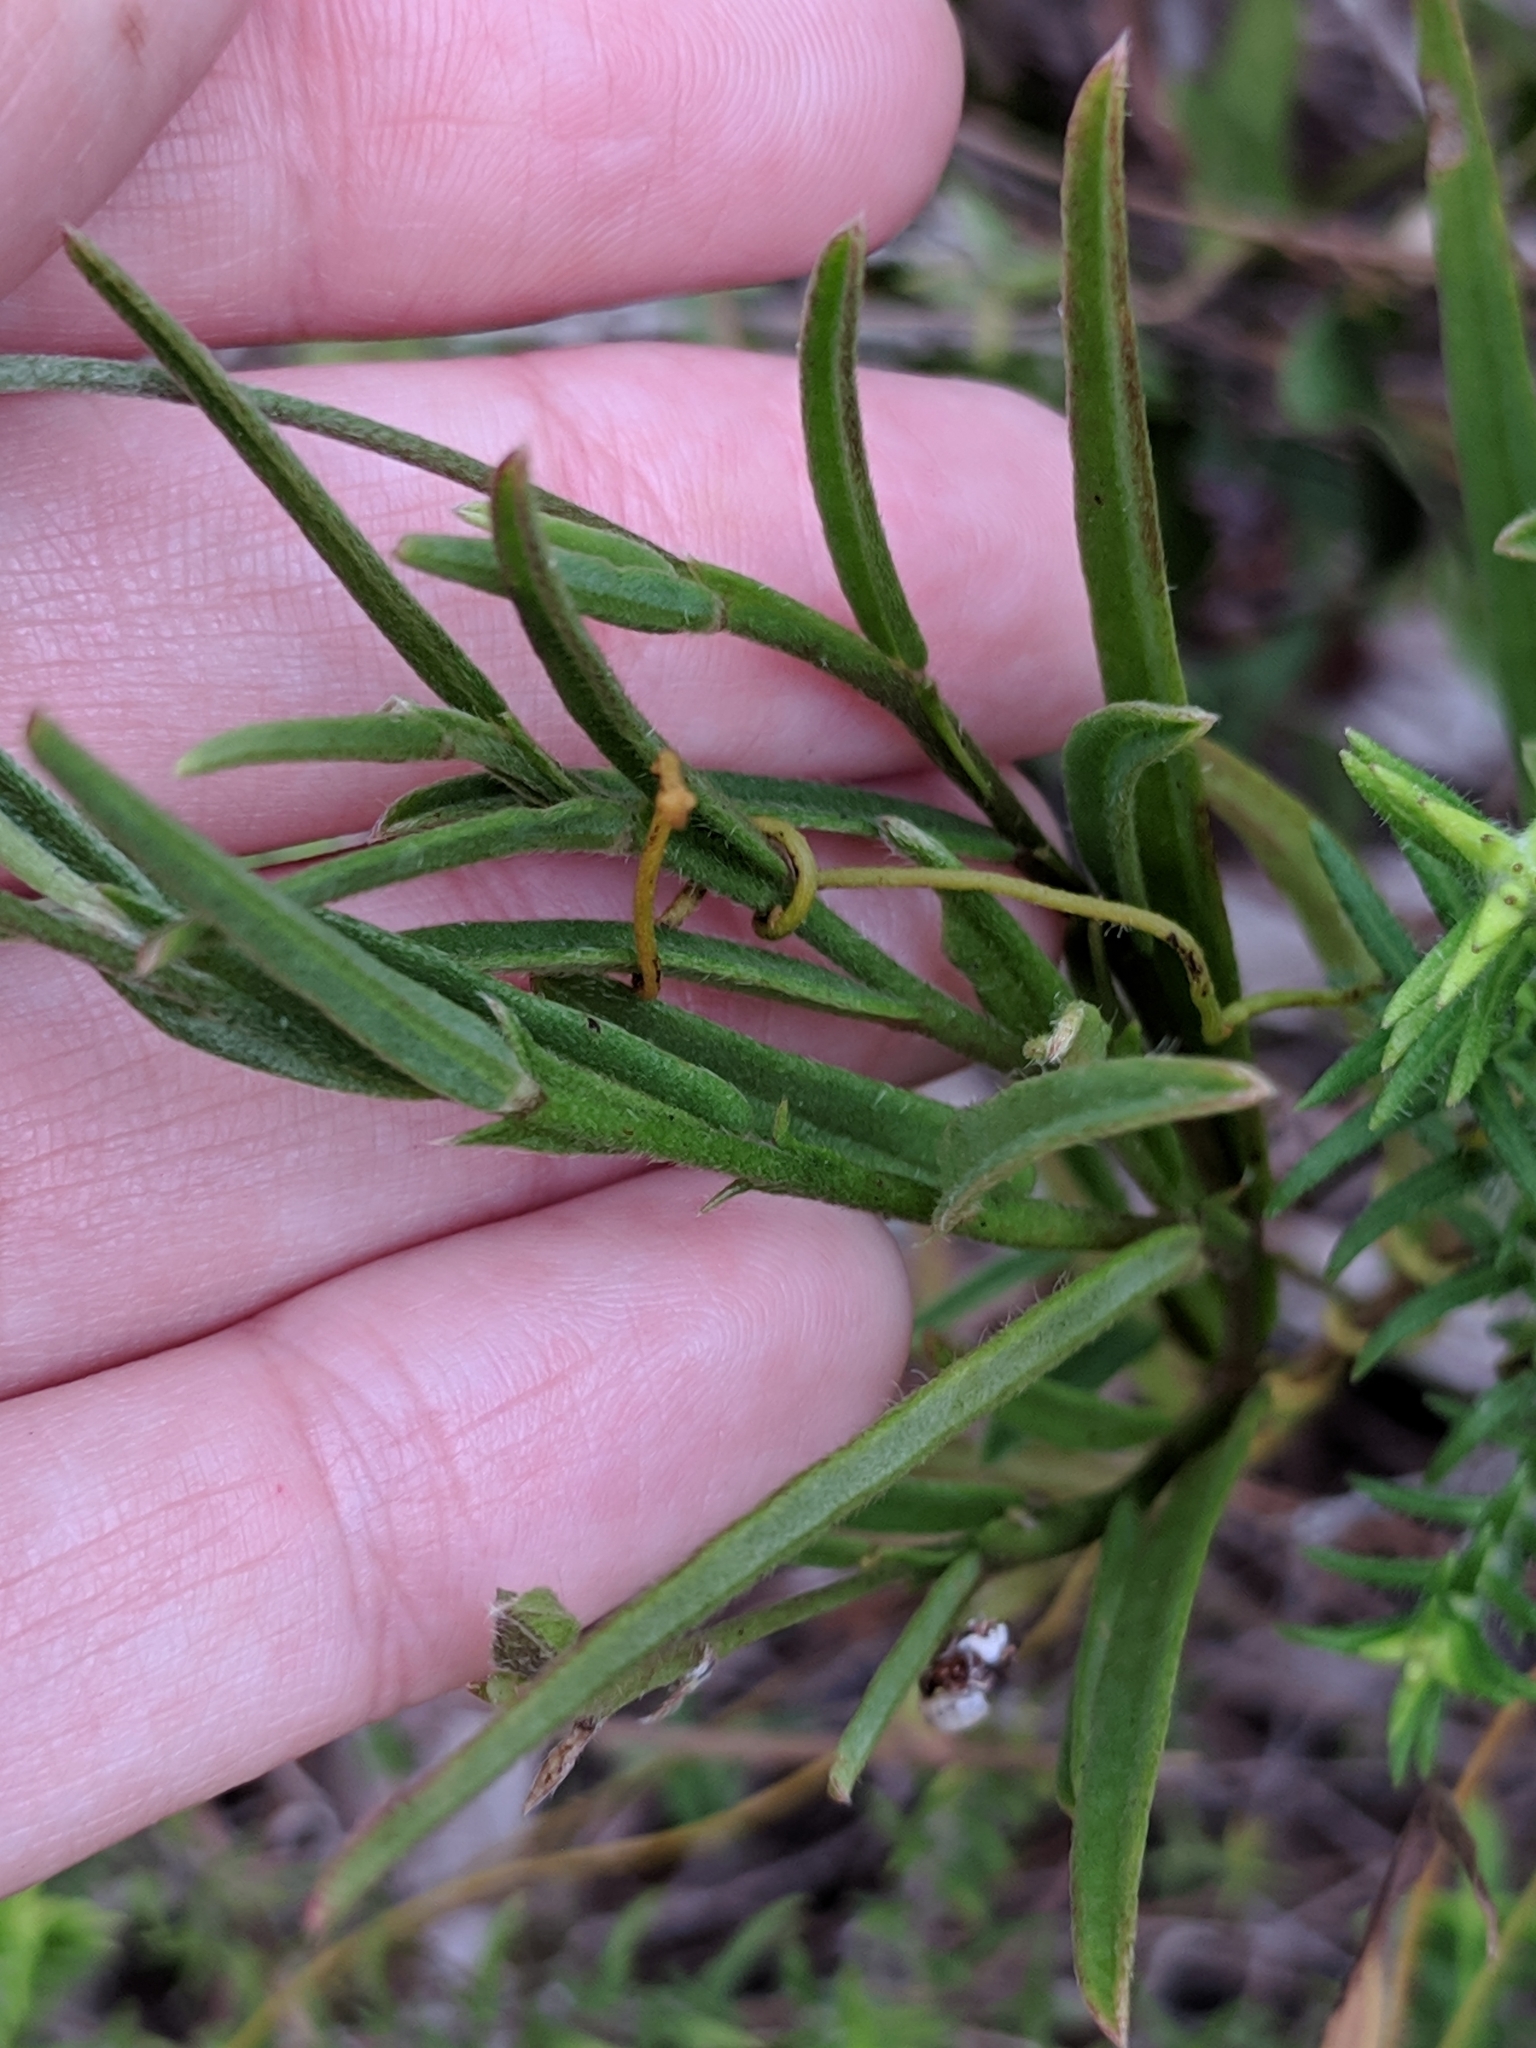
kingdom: Plantae
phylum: Tracheophyta
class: Magnoliopsida
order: Fabales
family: Fabaceae
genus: Crotalaria
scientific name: Crotalaria rotundifolia
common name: Prostrate rattlebox
